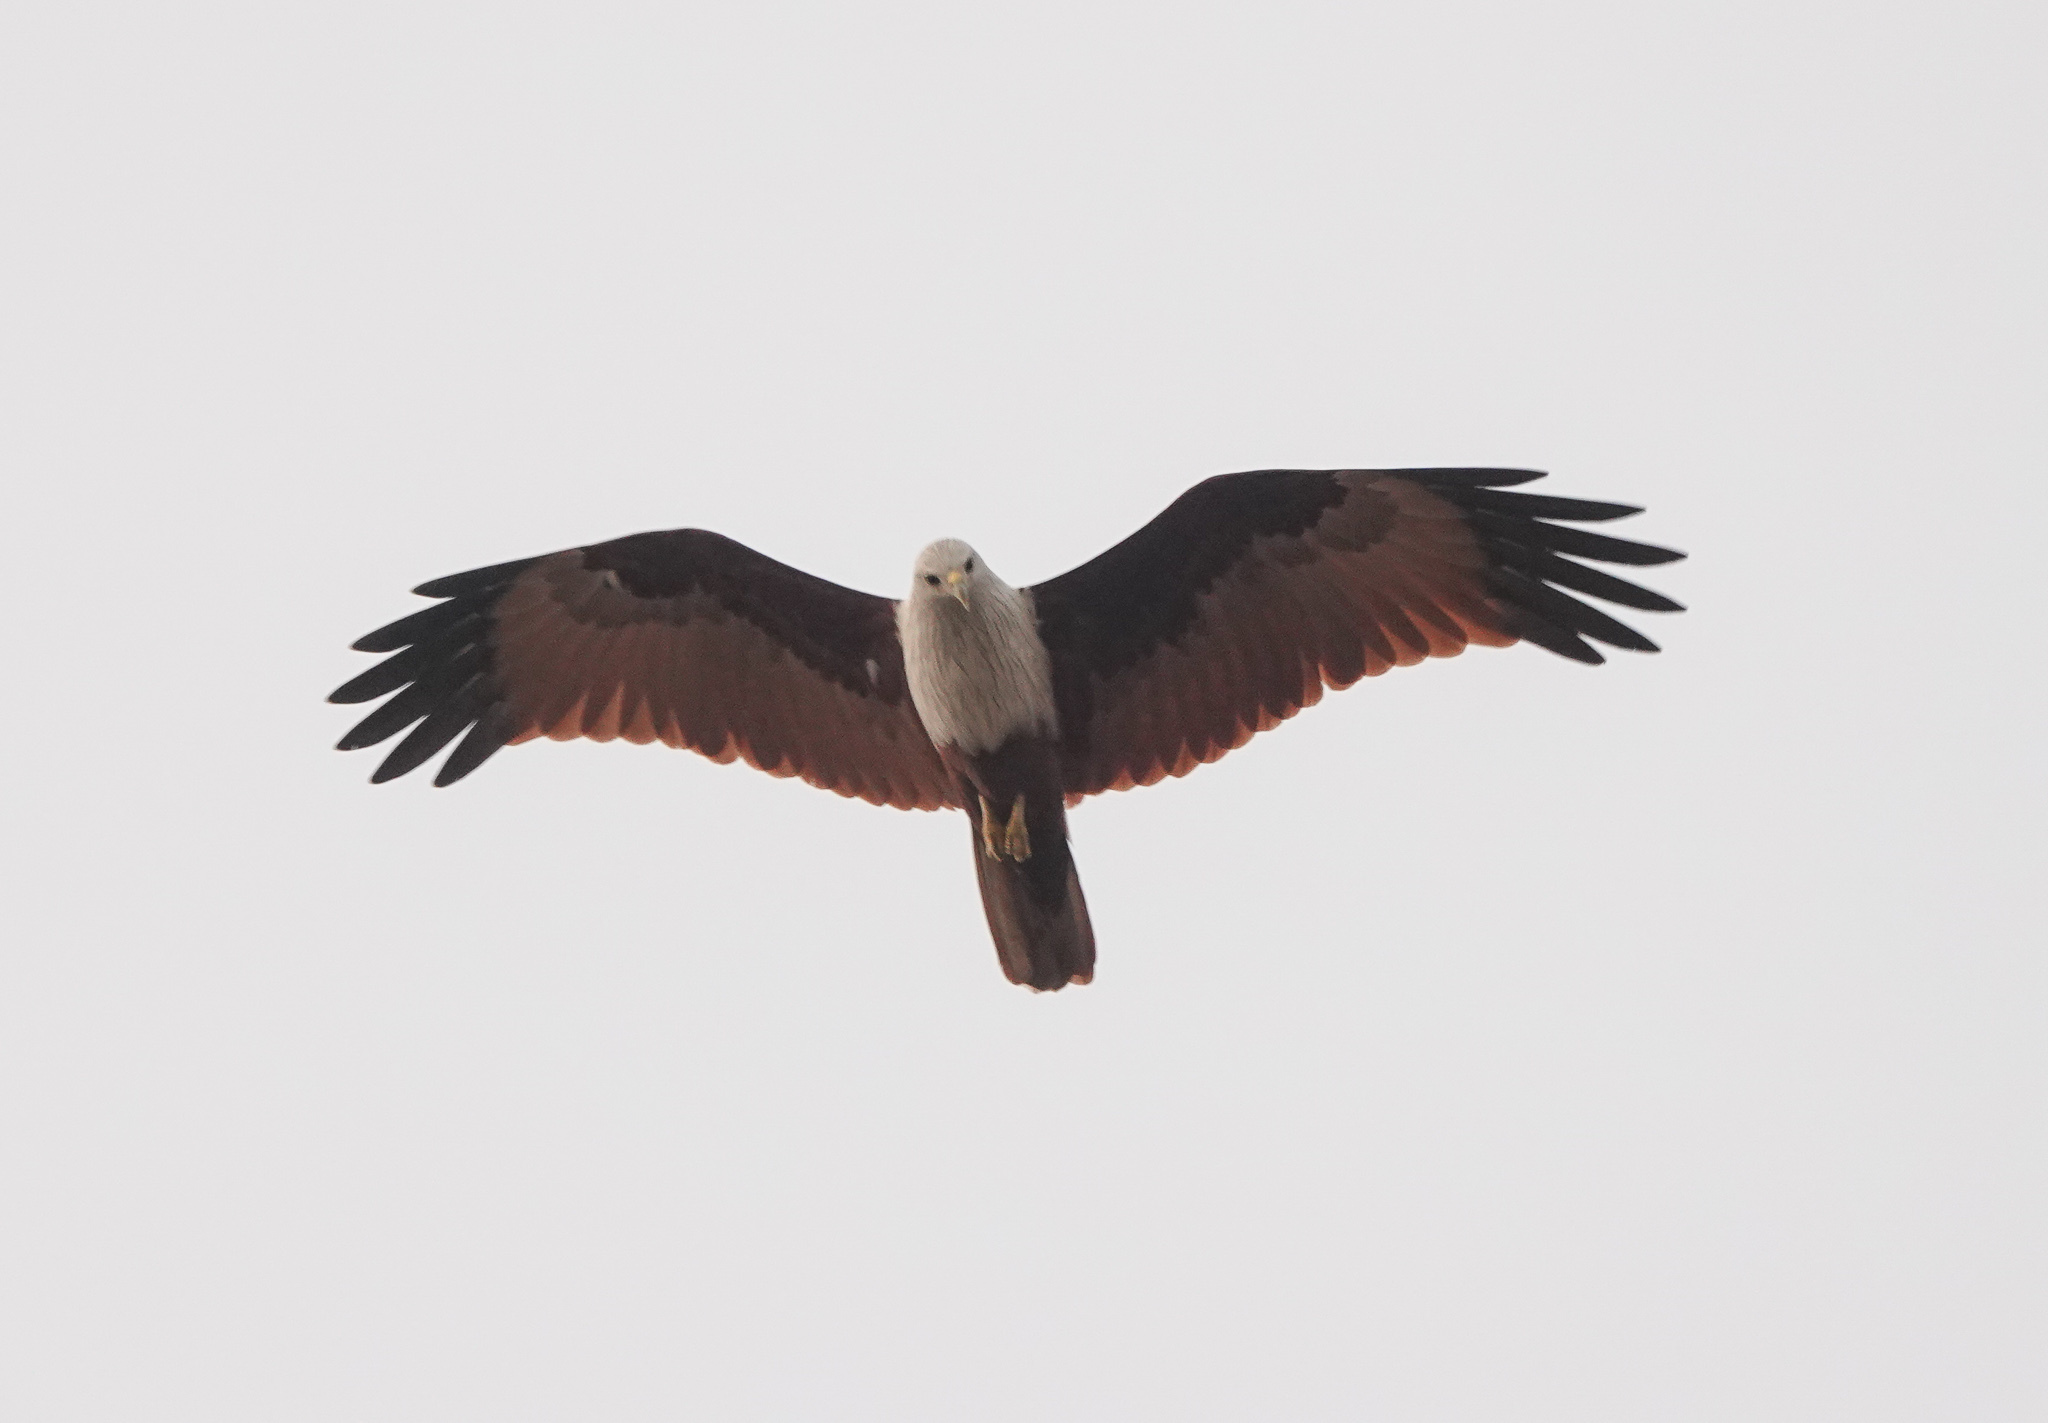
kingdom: Animalia
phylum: Chordata
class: Aves
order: Accipitriformes
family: Accipitridae
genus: Haliastur
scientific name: Haliastur indus
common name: Brahminy kite
